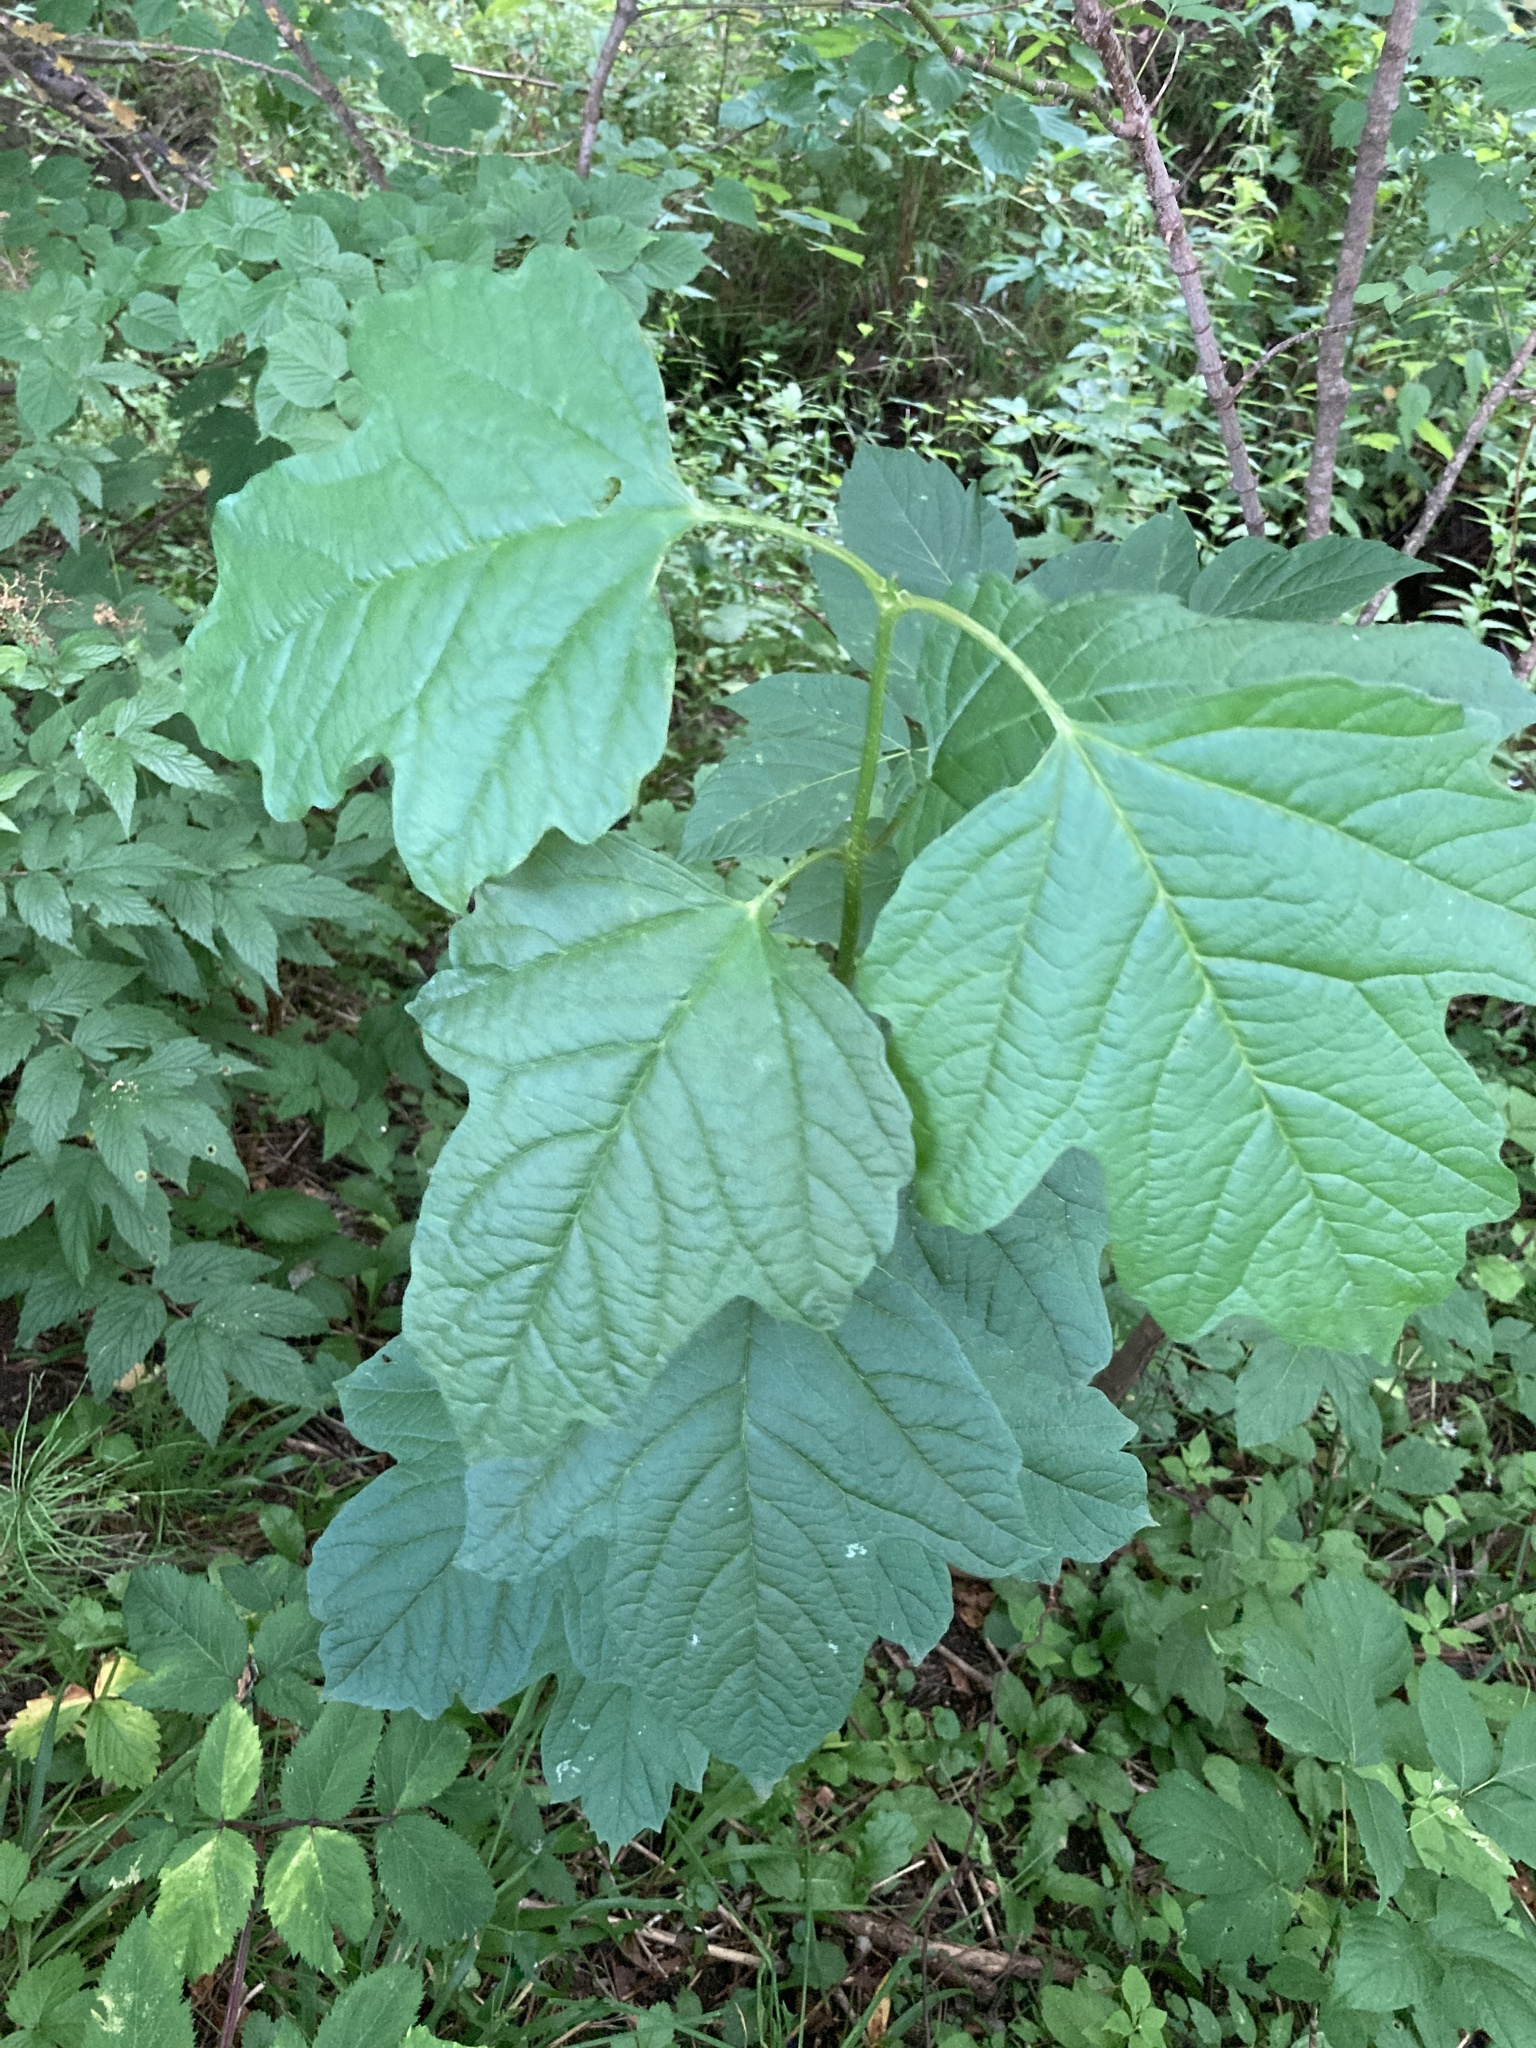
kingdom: Plantae
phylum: Tracheophyta
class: Magnoliopsida
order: Dipsacales
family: Viburnaceae
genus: Viburnum
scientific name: Viburnum opulus
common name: Guelder-rose
